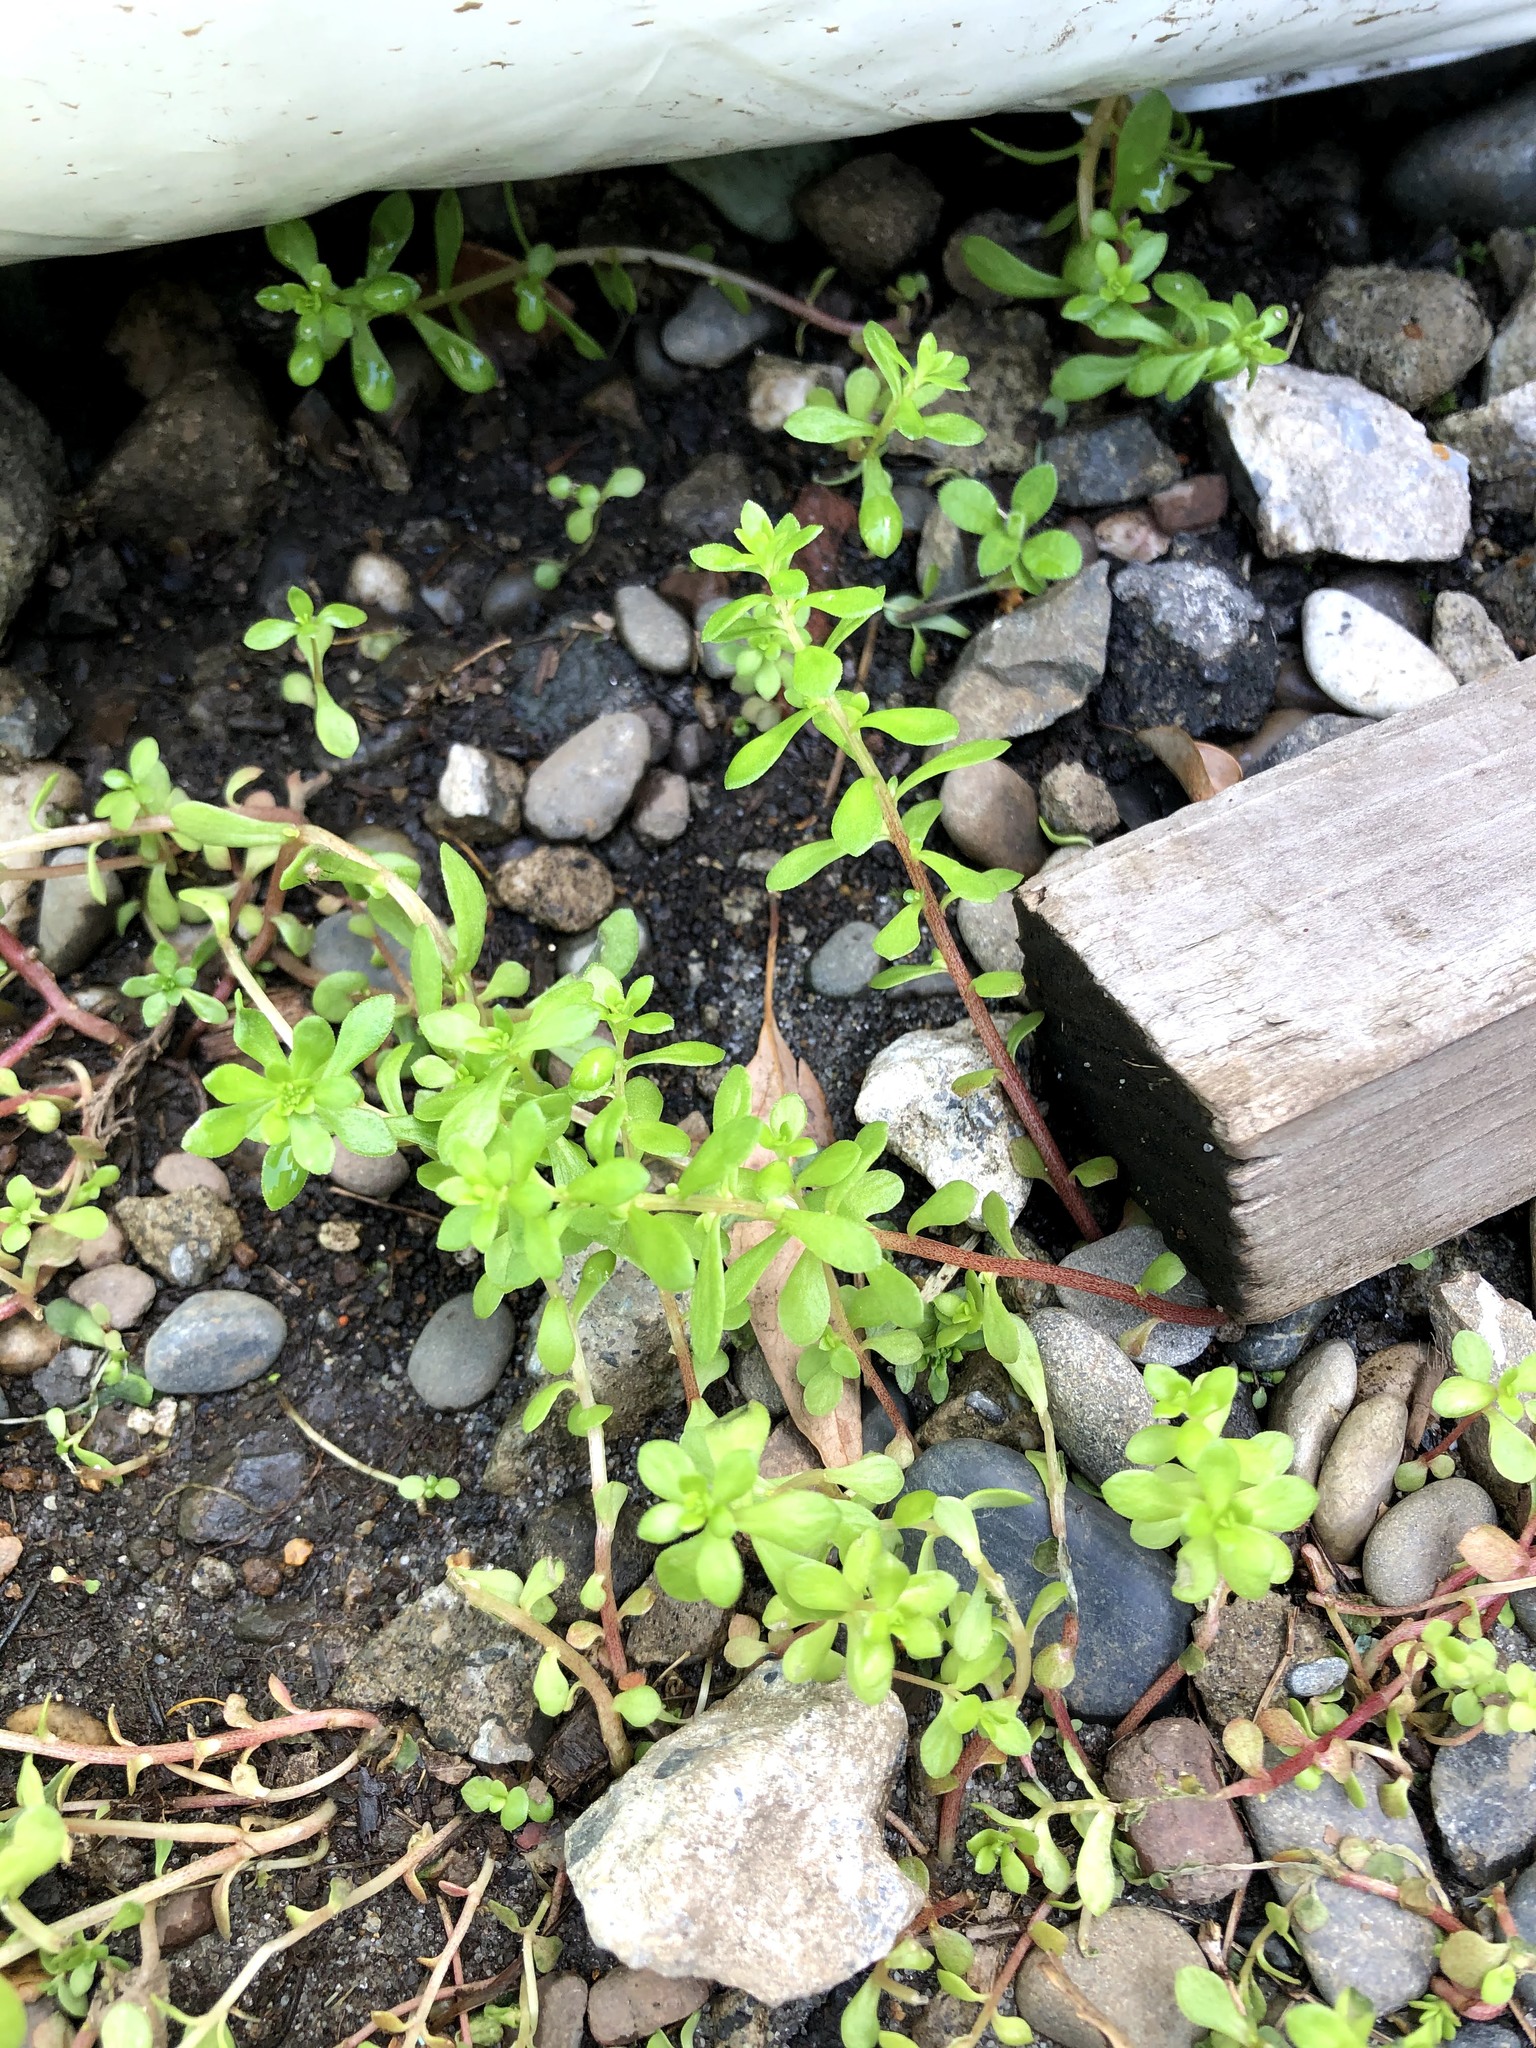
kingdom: Plantae
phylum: Tracheophyta
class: Magnoliopsida
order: Saxifragales
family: Crassulaceae
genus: Sedum
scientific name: Sedum bulbiferum
